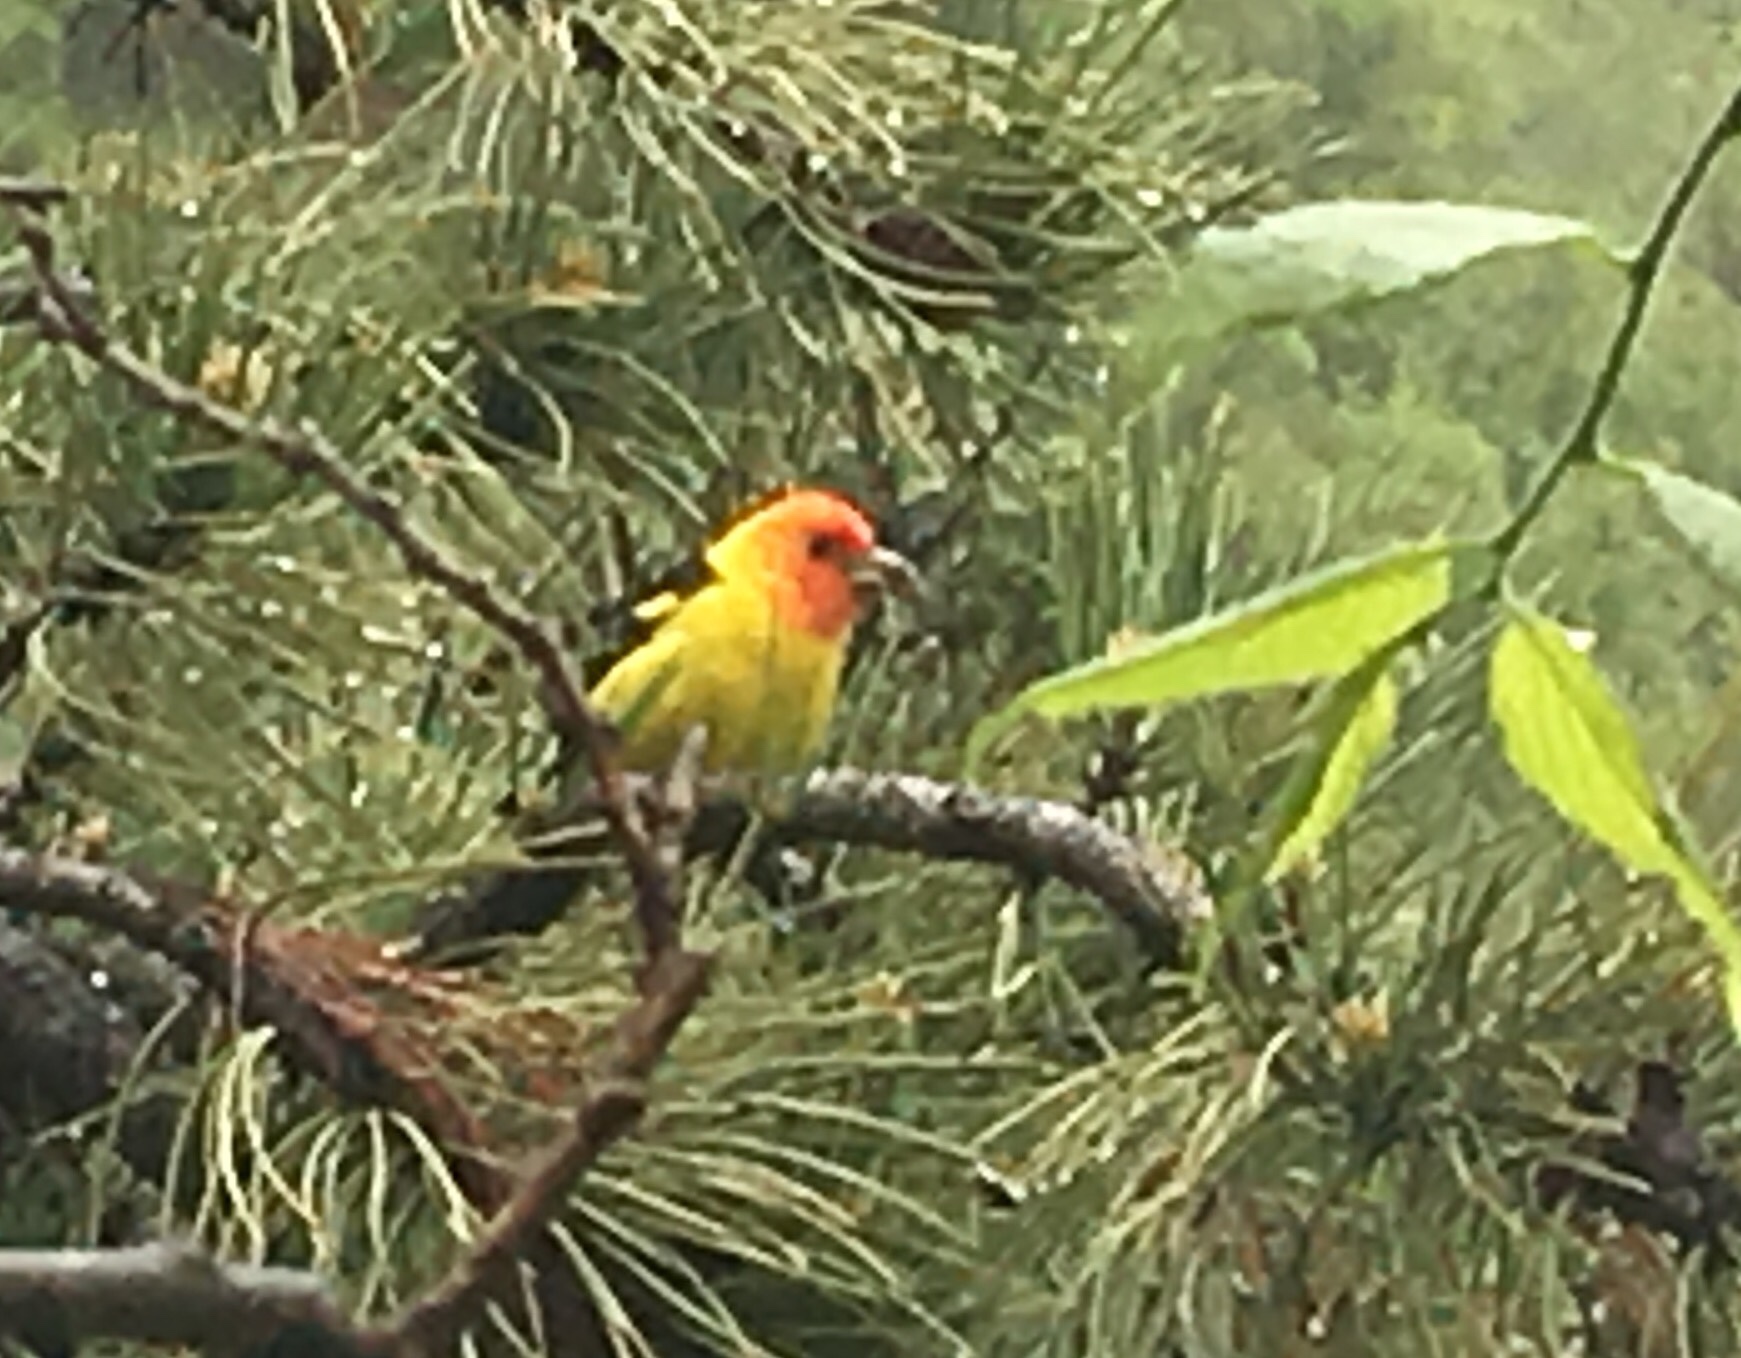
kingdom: Animalia
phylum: Chordata
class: Aves
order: Passeriformes
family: Cardinalidae
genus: Piranga
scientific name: Piranga ludoviciana
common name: Western tanager
